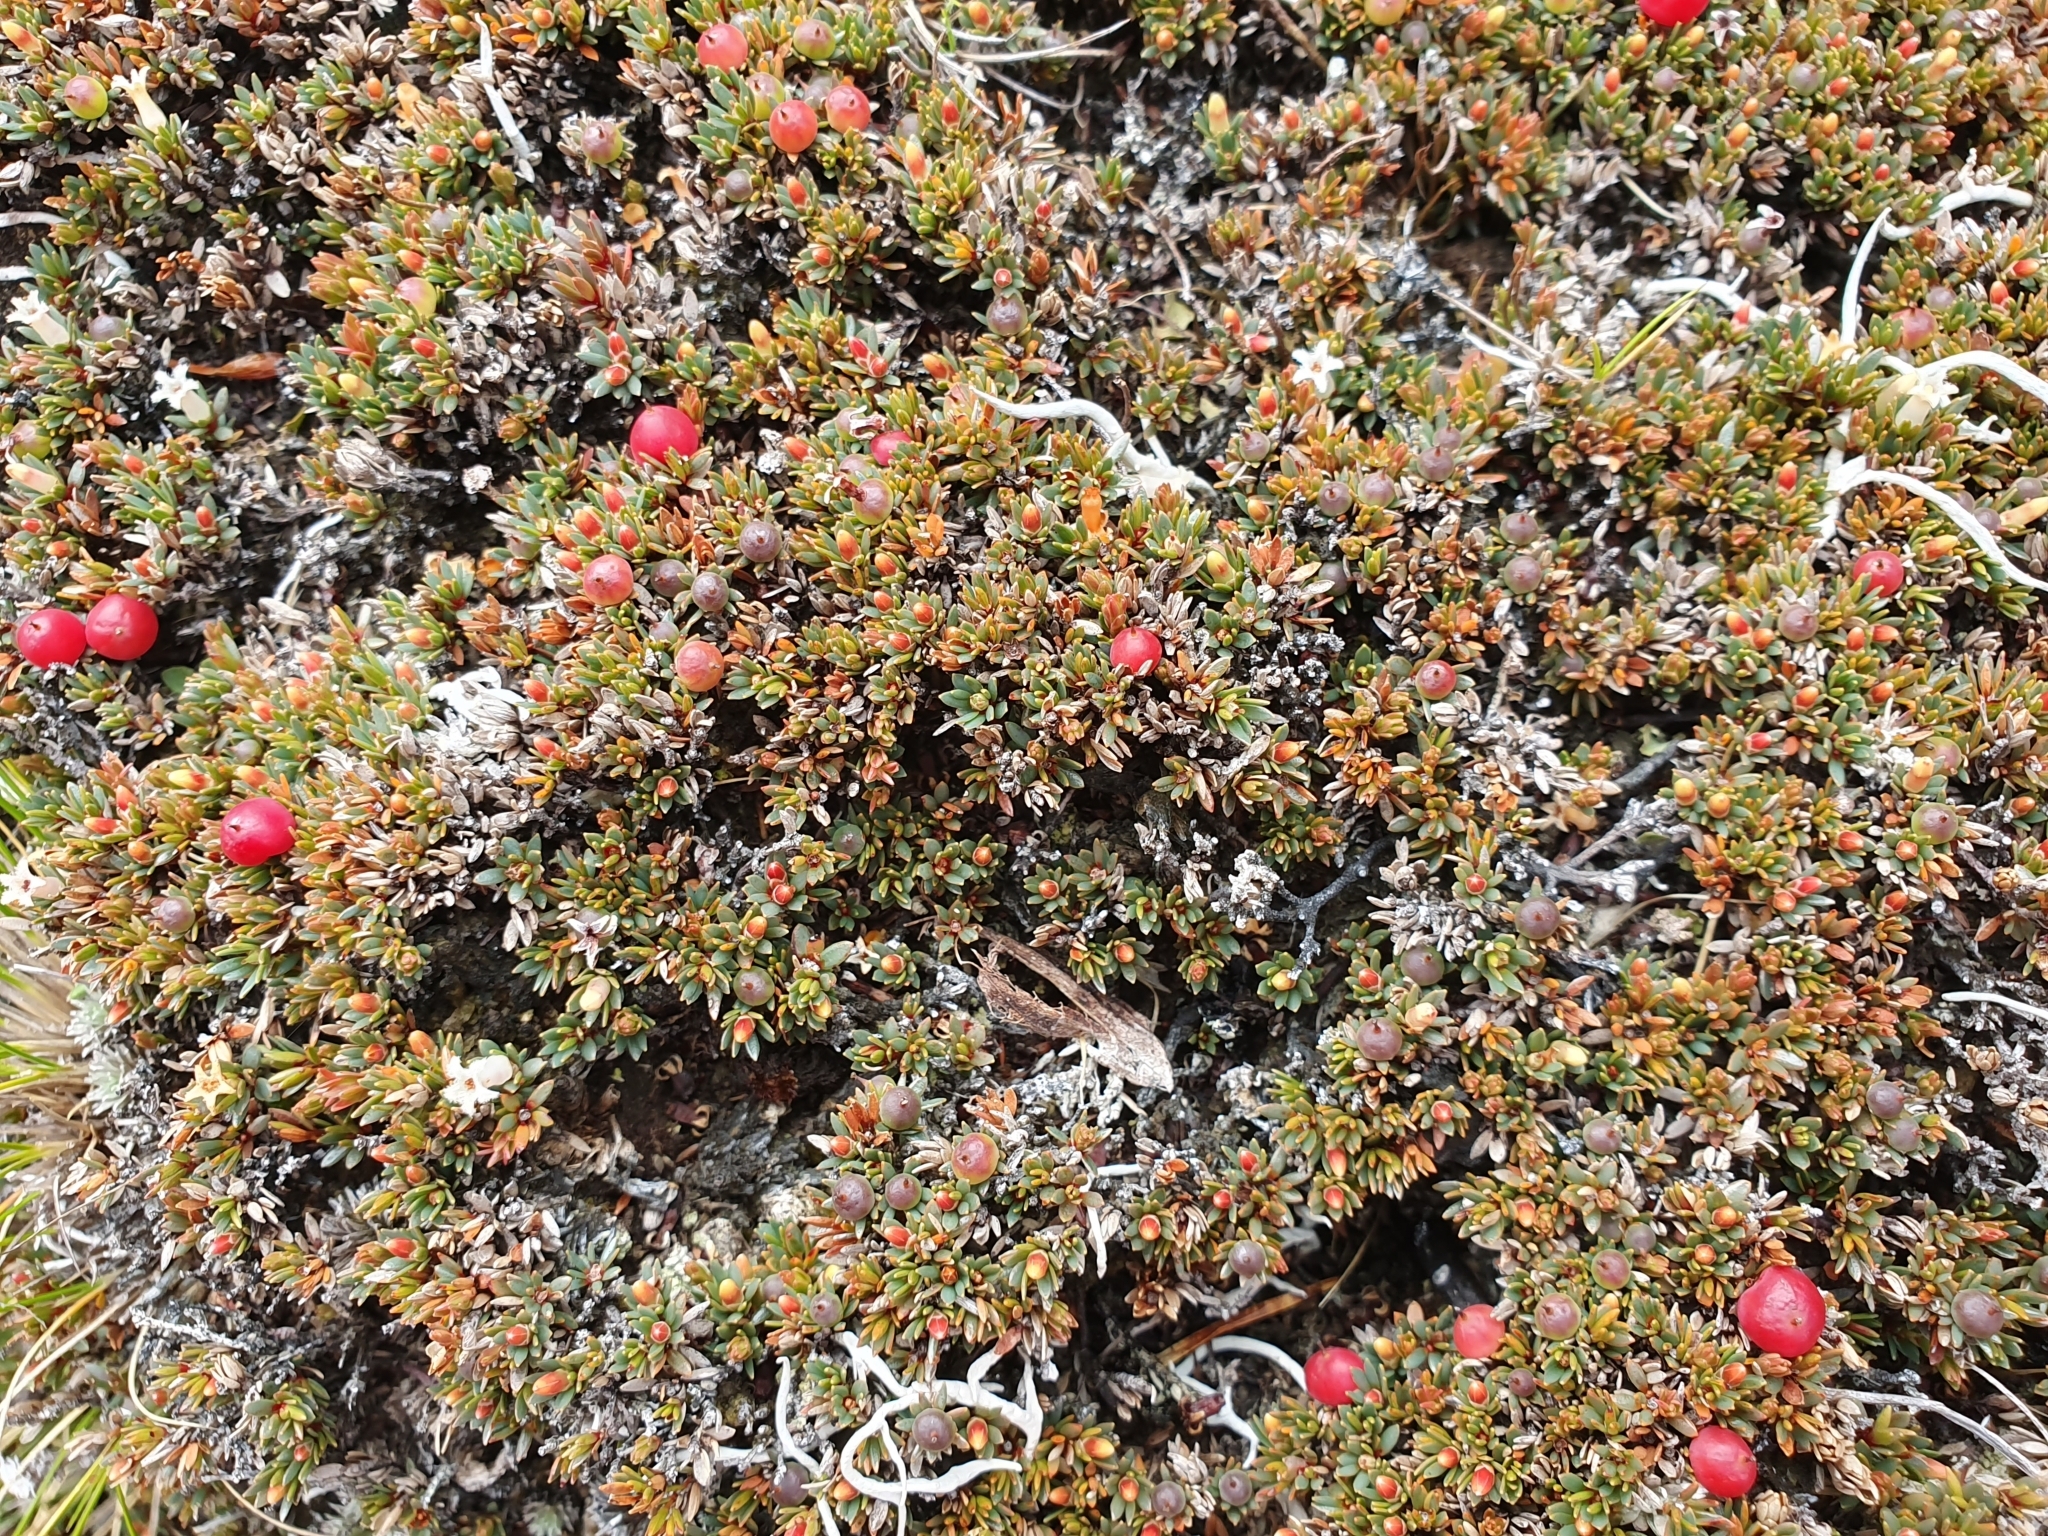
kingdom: Plantae
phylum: Tracheophyta
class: Magnoliopsida
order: Ericales
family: Ericaceae
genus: Pentachondra
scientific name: Pentachondra pumila
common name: Carpet-heath
